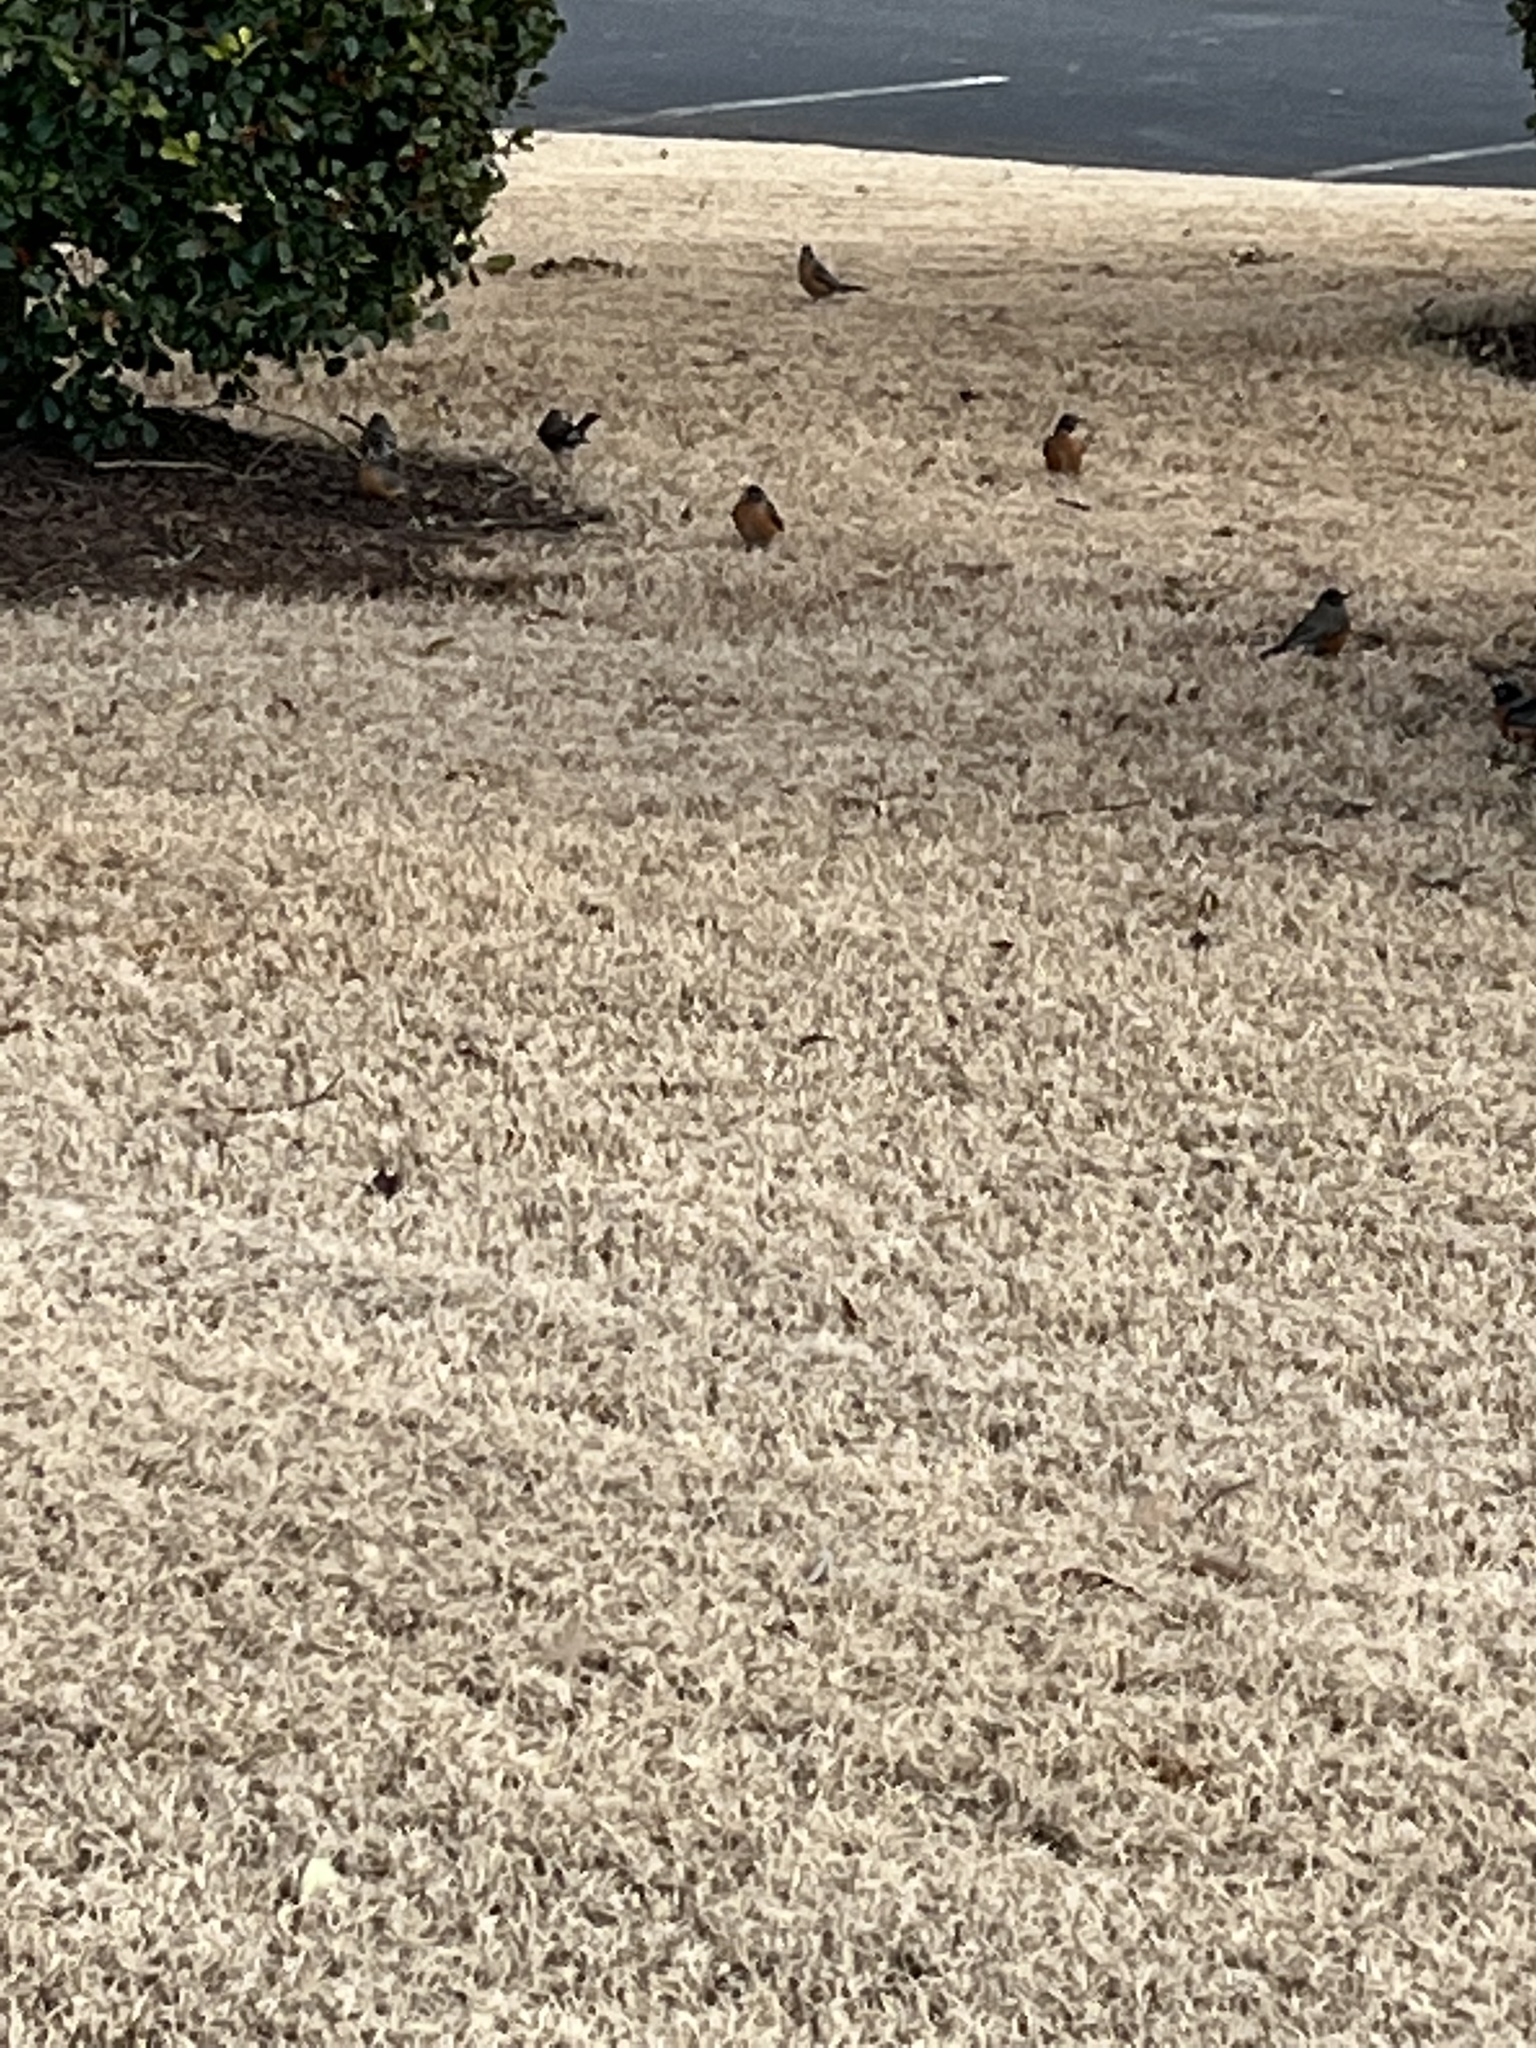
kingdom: Animalia
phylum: Chordata
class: Aves
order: Passeriformes
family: Turdidae
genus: Turdus
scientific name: Turdus migratorius
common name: American robin
